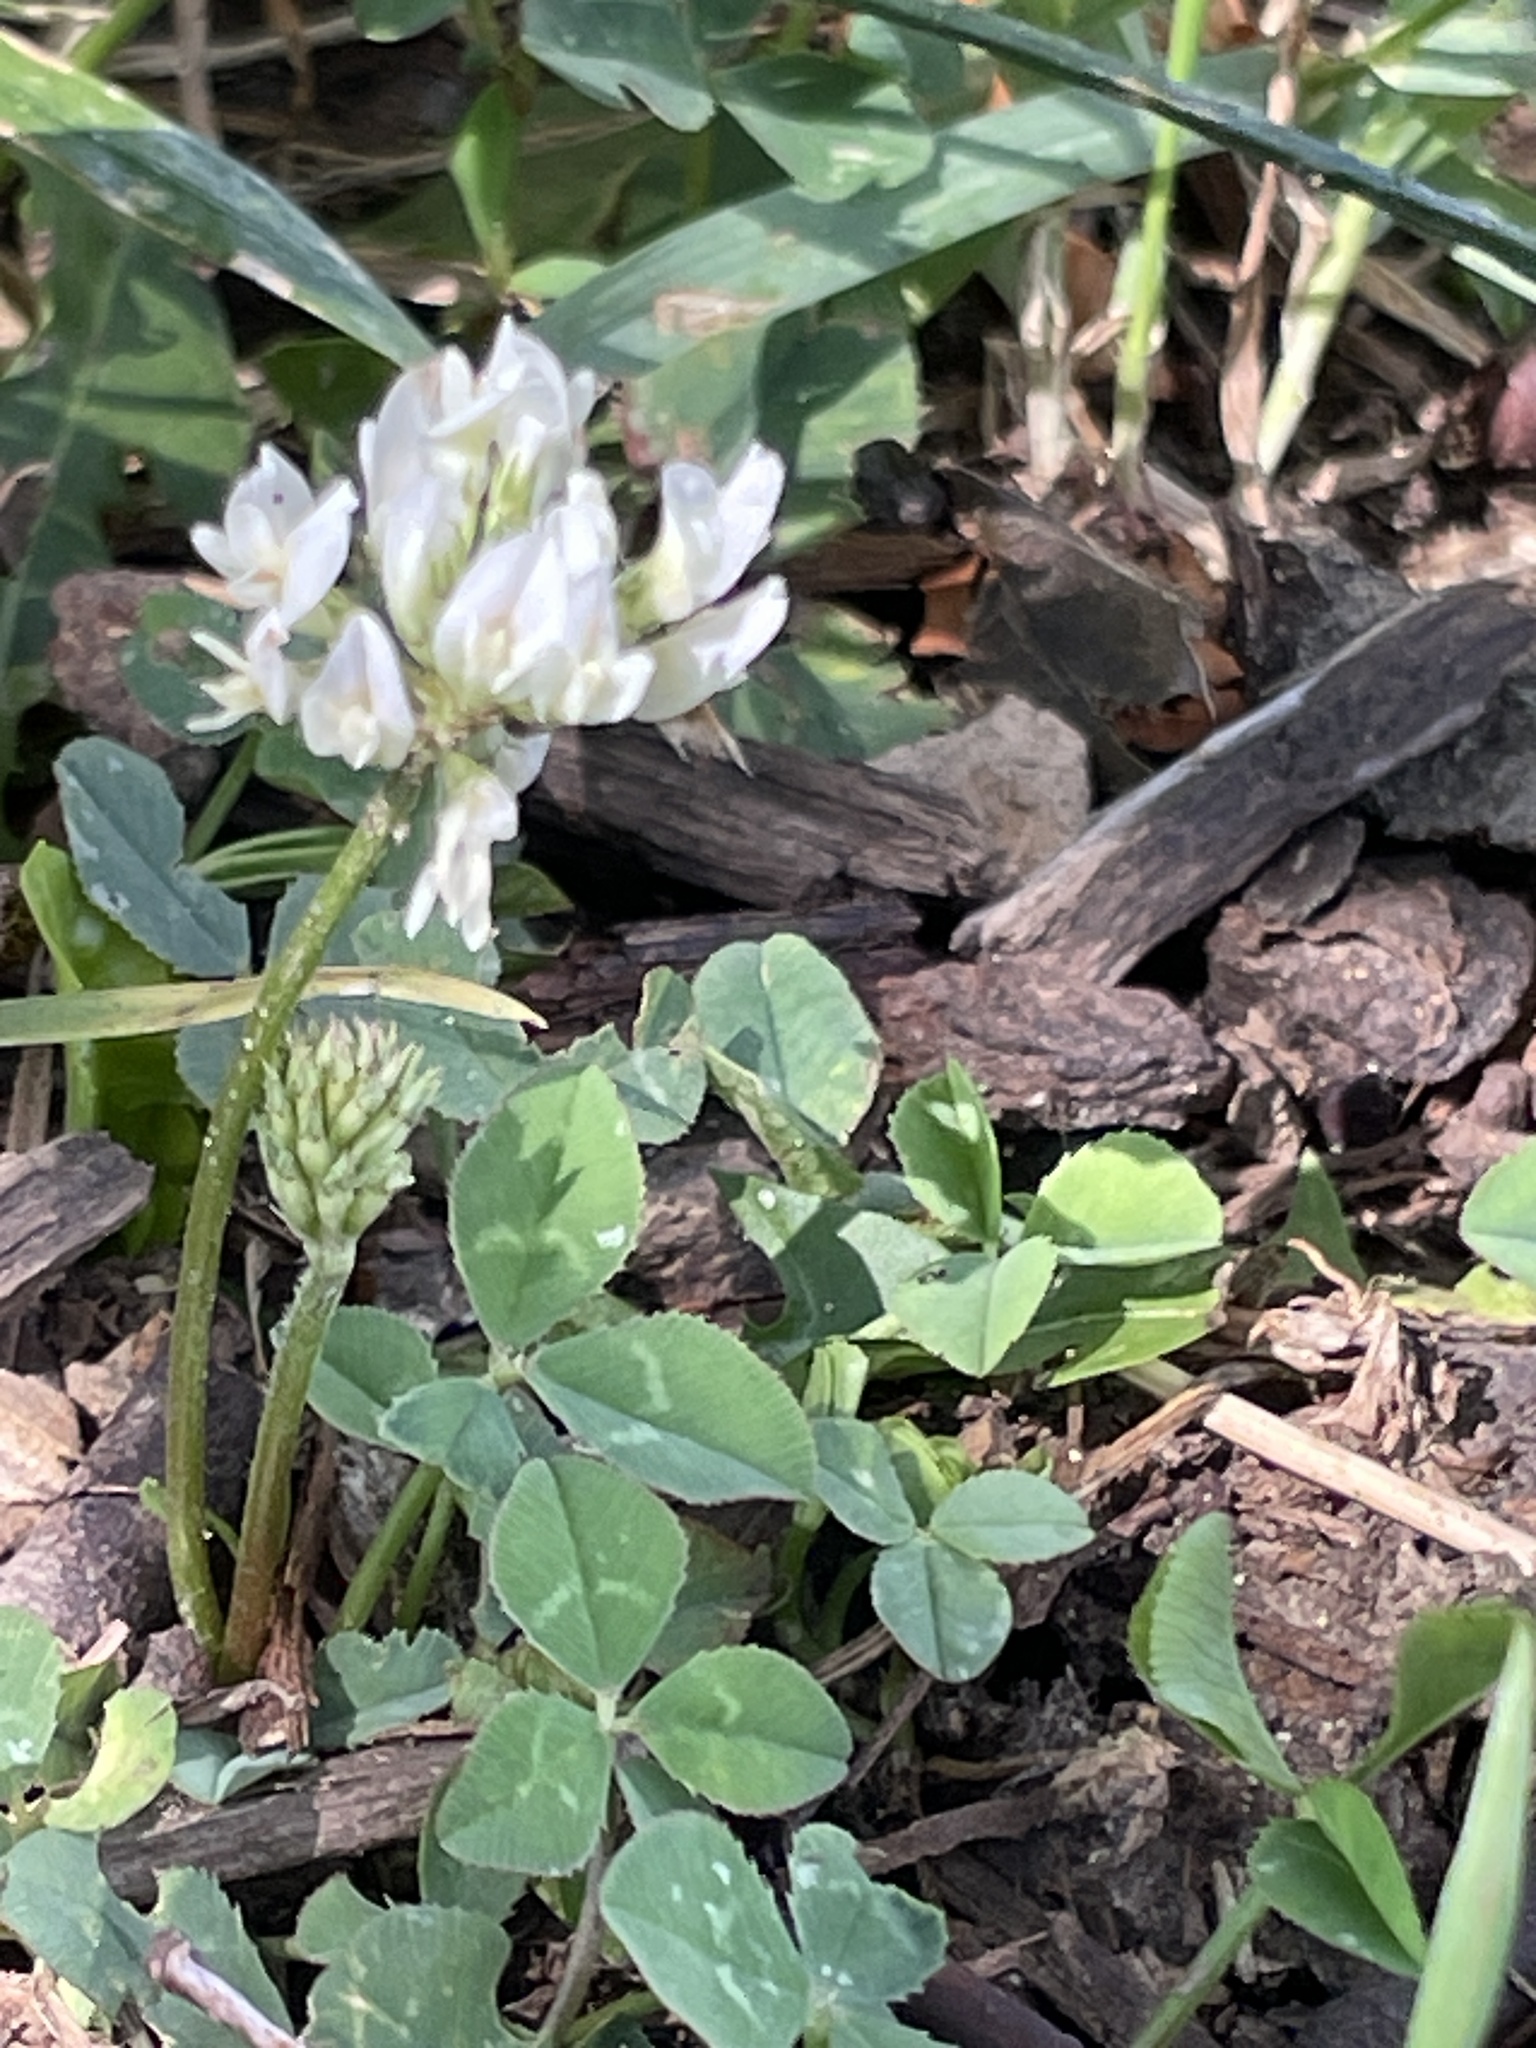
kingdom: Plantae
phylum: Tracheophyta
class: Magnoliopsida
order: Fabales
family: Fabaceae
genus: Trifolium
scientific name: Trifolium repens
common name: White clover
